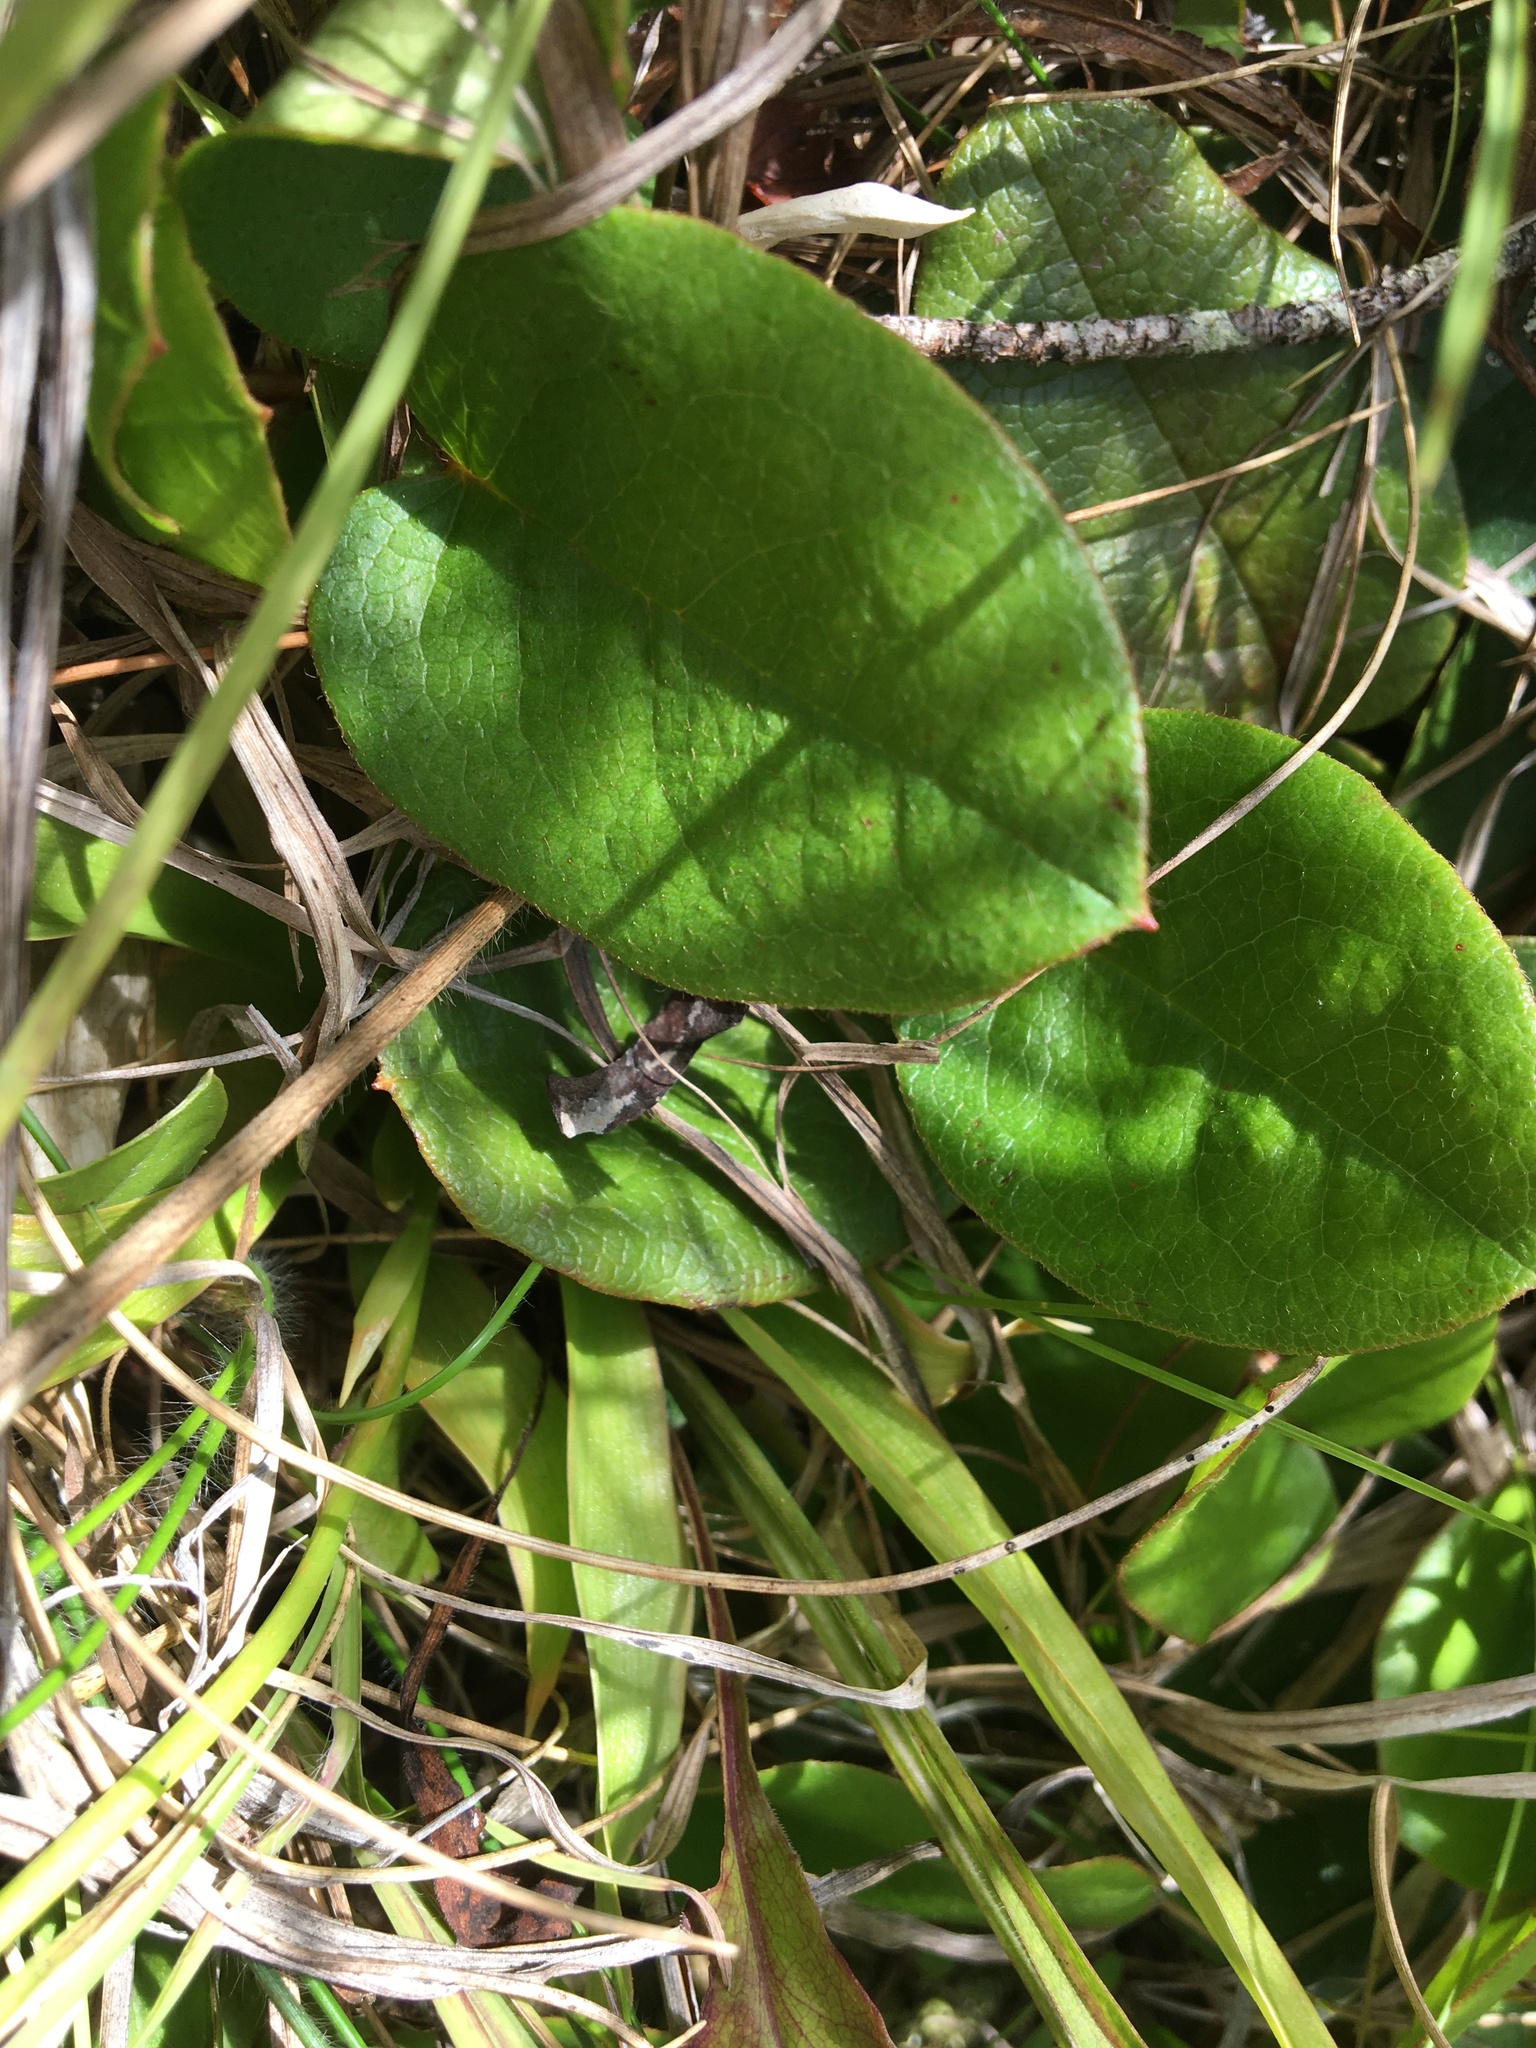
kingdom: Plantae
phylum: Tracheophyta
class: Magnoliopsida
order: Ericales
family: Ericaceae
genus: Epigaea
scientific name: Epigaea repens
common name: Gravelroot
